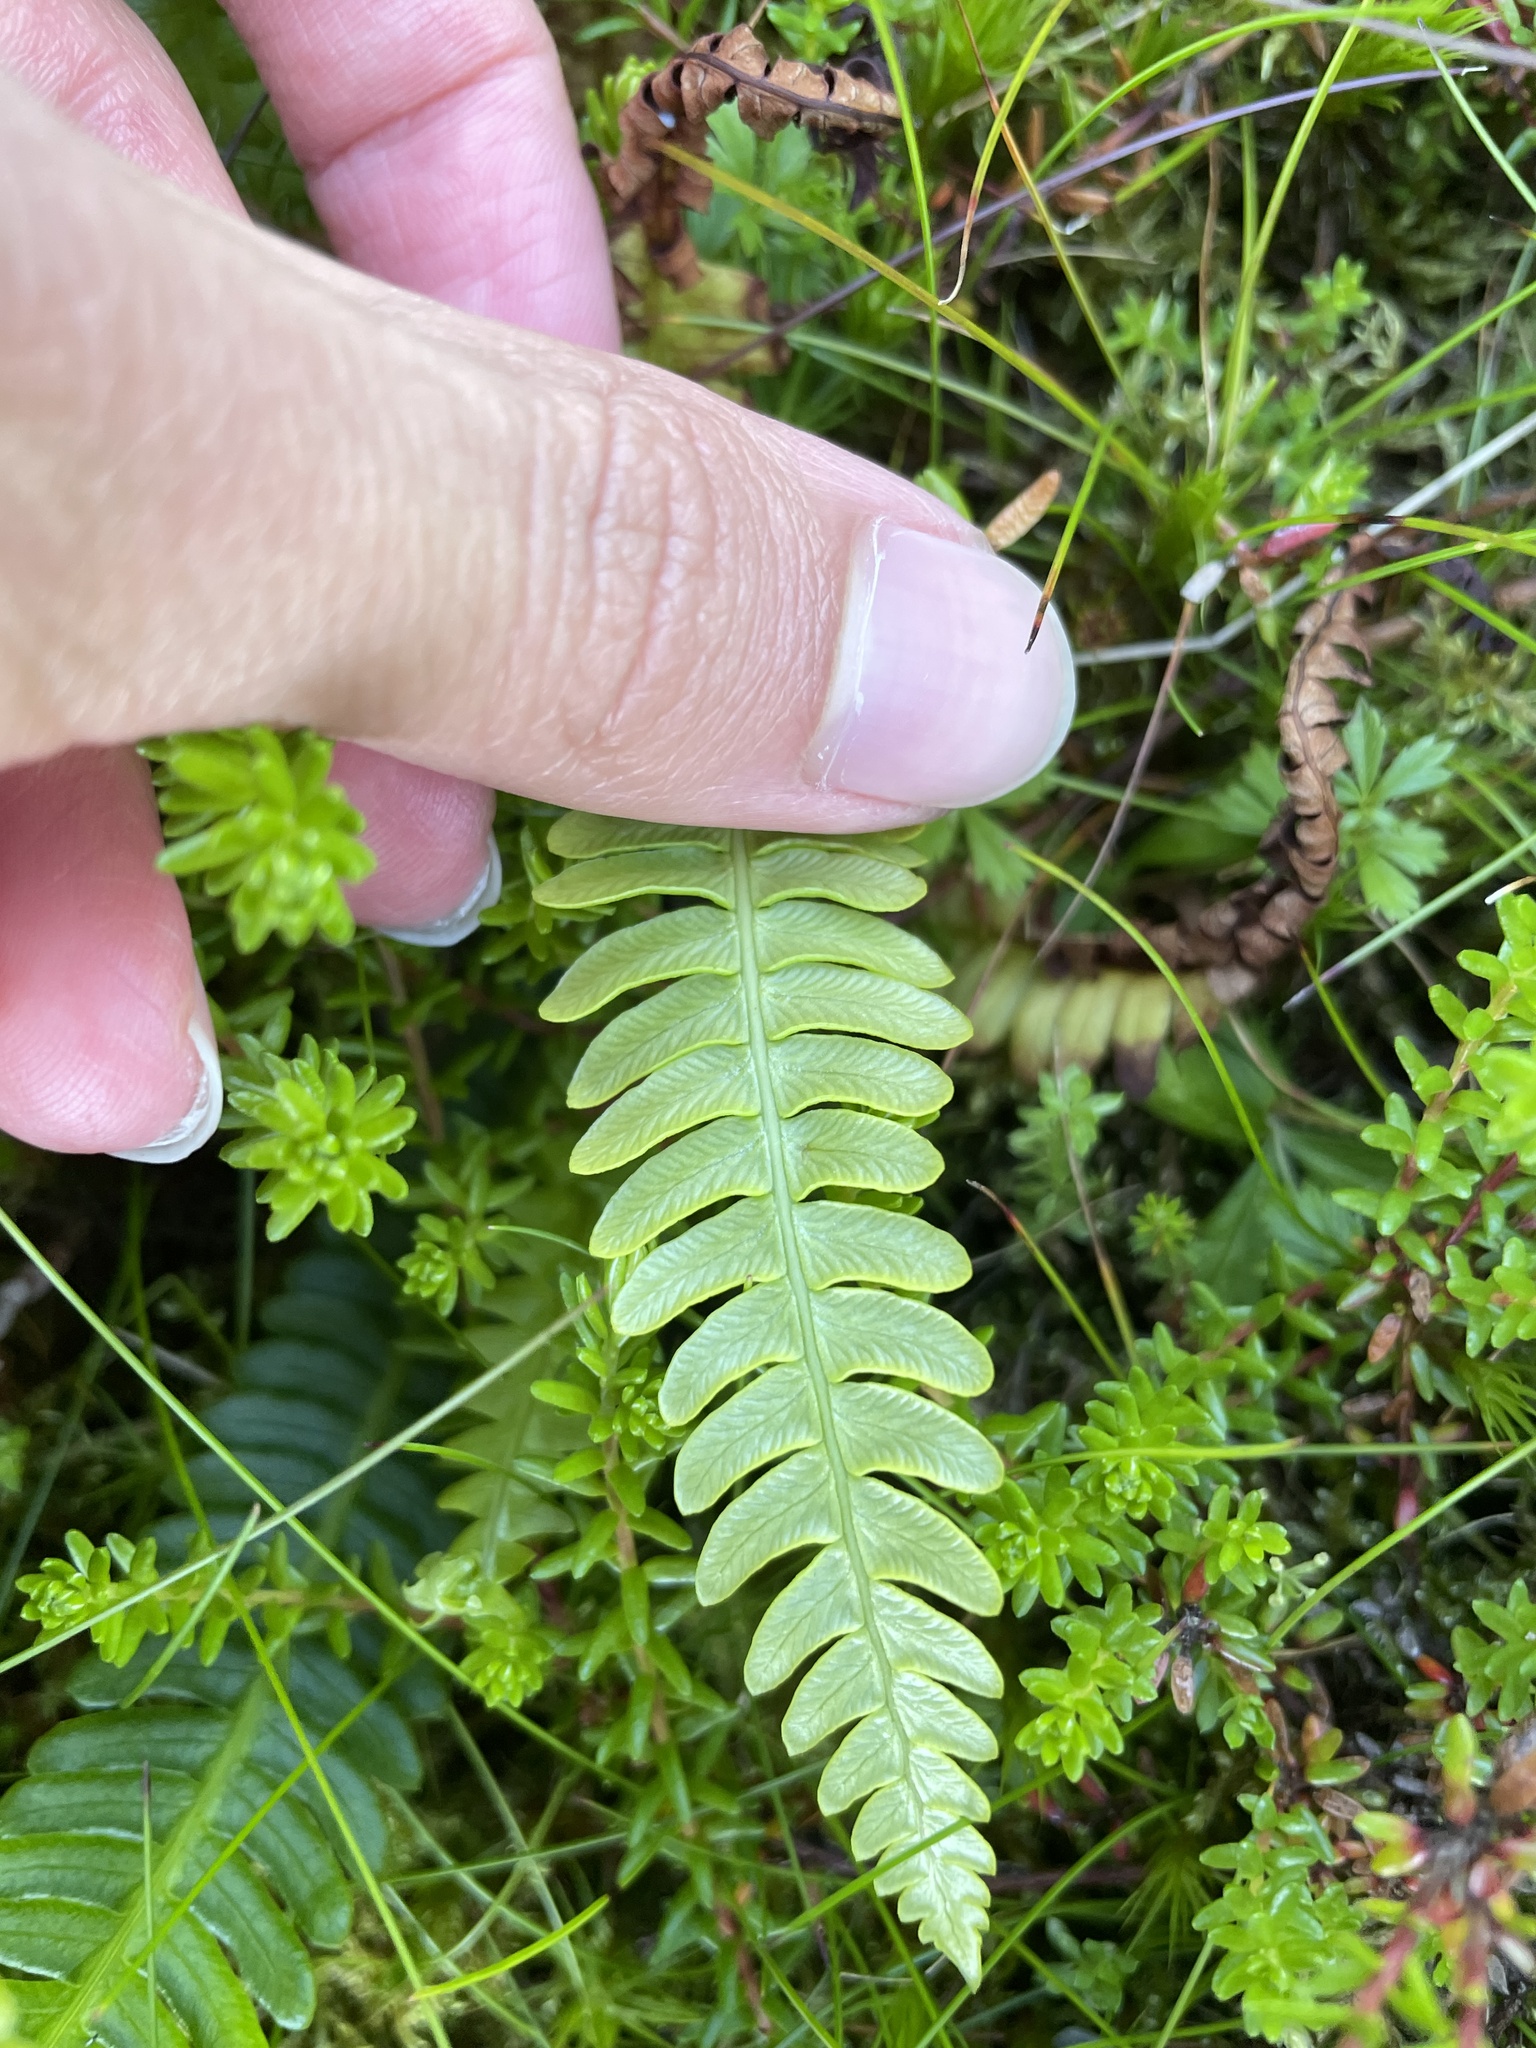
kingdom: Plantae
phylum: Tracheophyta
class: Polypodiopsida
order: Polypodiales
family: Blechnaceae
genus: Struthiopteris
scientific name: Struthiopteris spicant
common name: Deer fern
